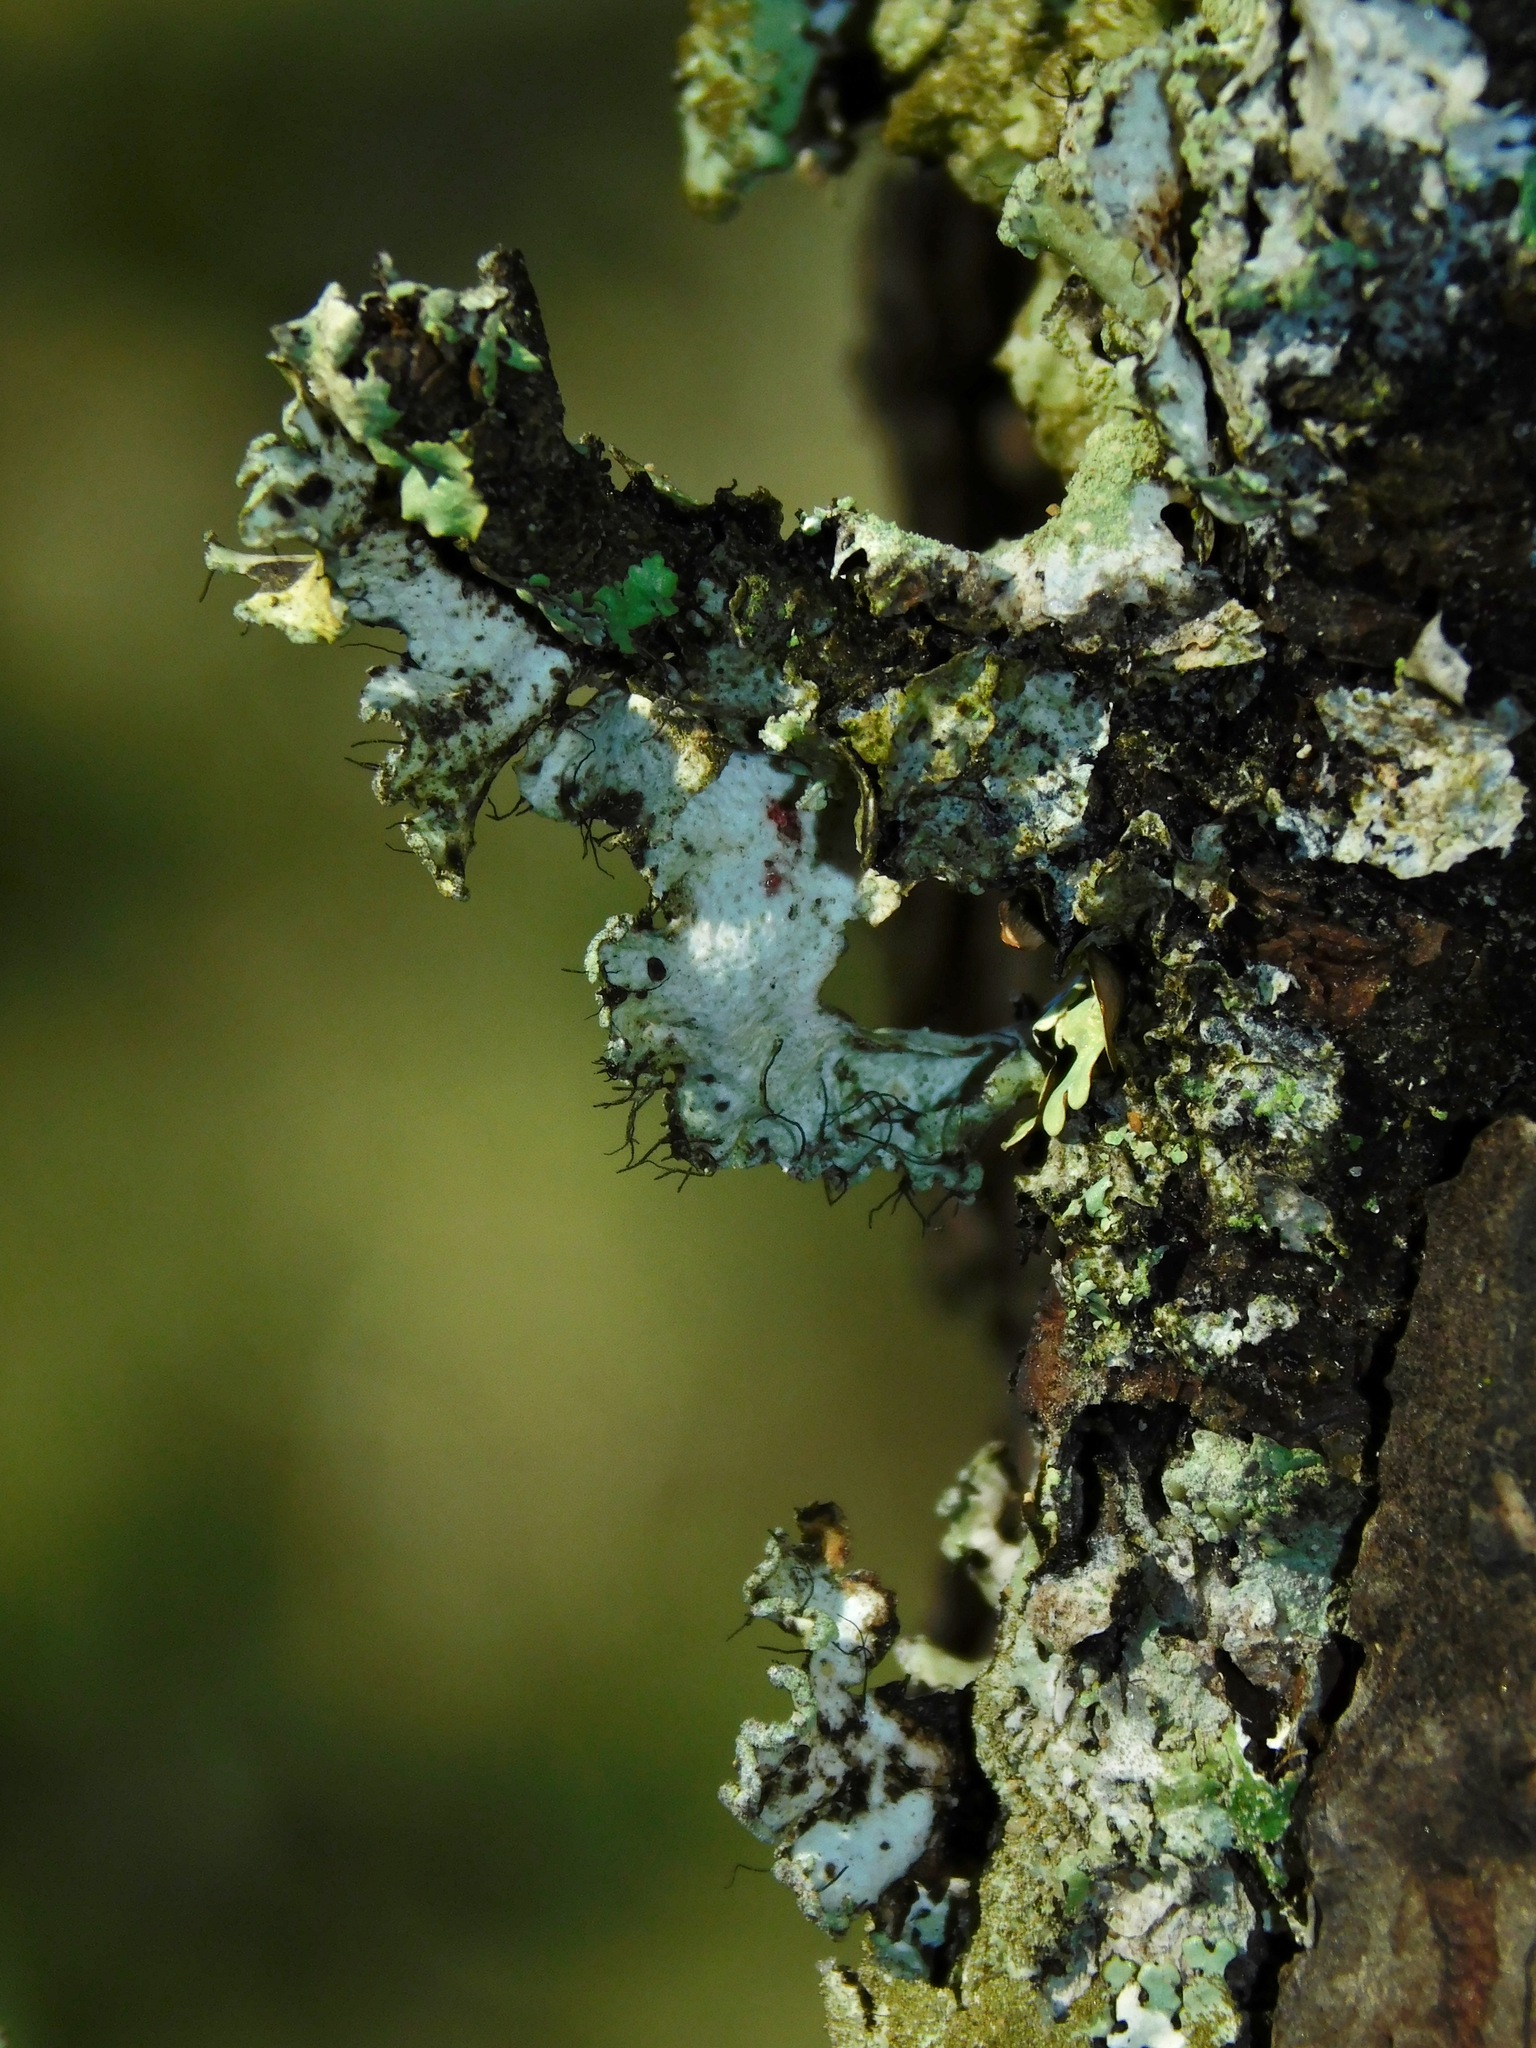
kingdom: Fungi
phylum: Ascomycota
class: Lecanoromycetes
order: Lecanorales
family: Parmeliaceae
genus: Hypotrachyna
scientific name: Hypotrachyna minarum
